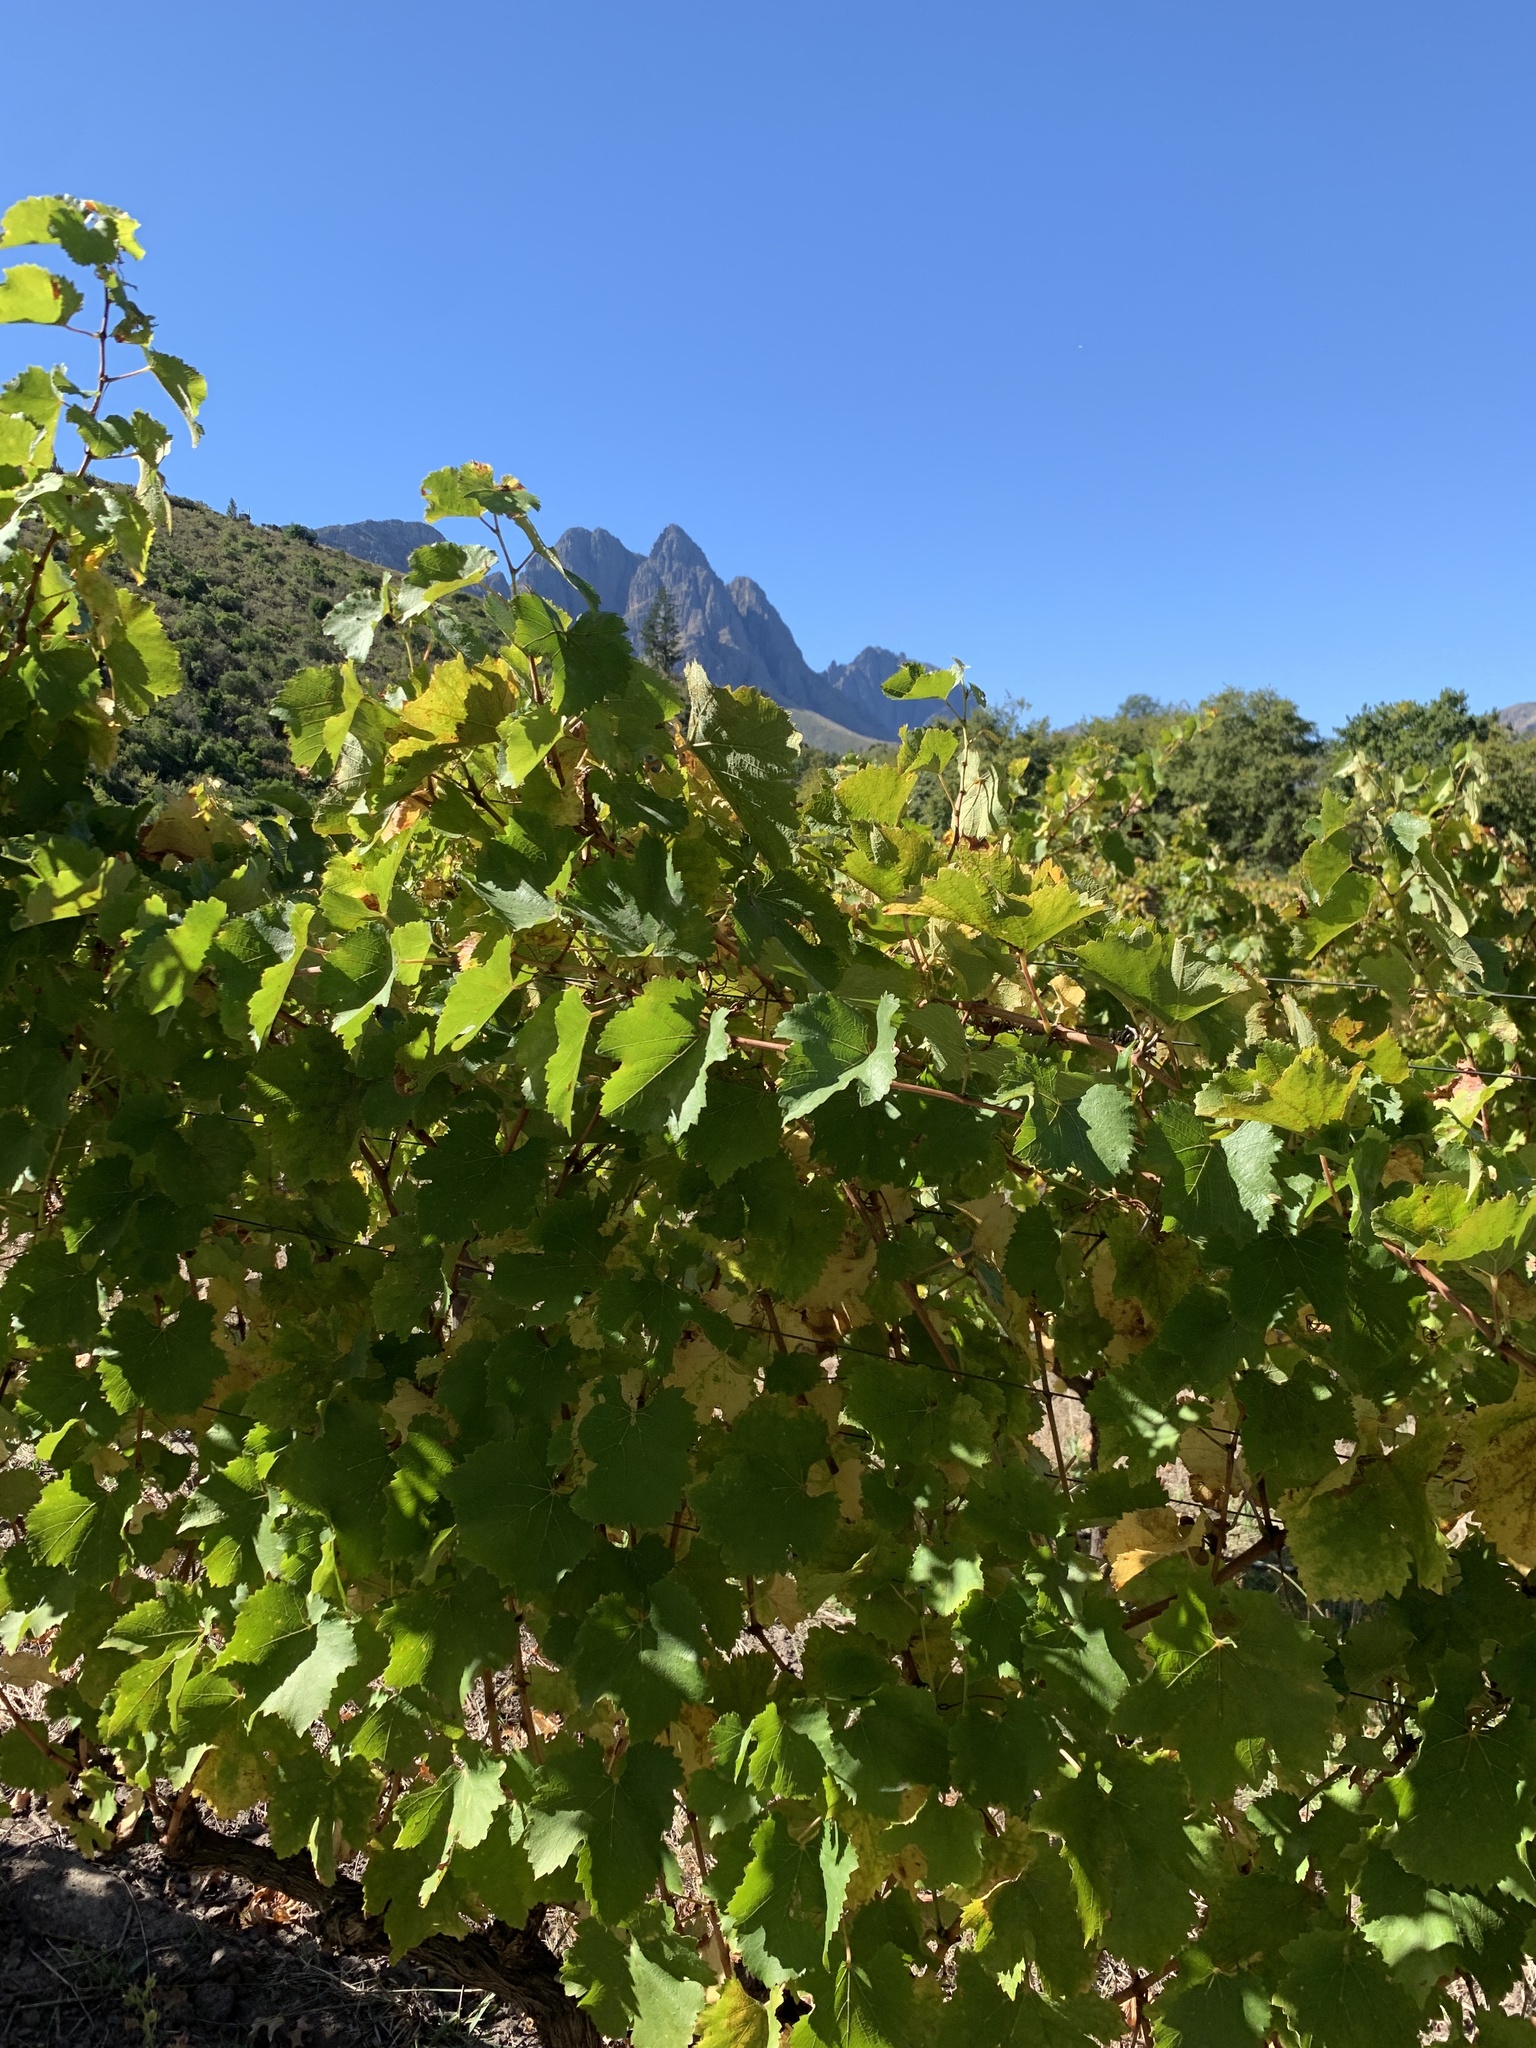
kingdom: Plantae
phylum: Tracheophyta
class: Magnoliopsida
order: Vitales
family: Vitaceae
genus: Vitis
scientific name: Vitis vinifera
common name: Grape-vine
